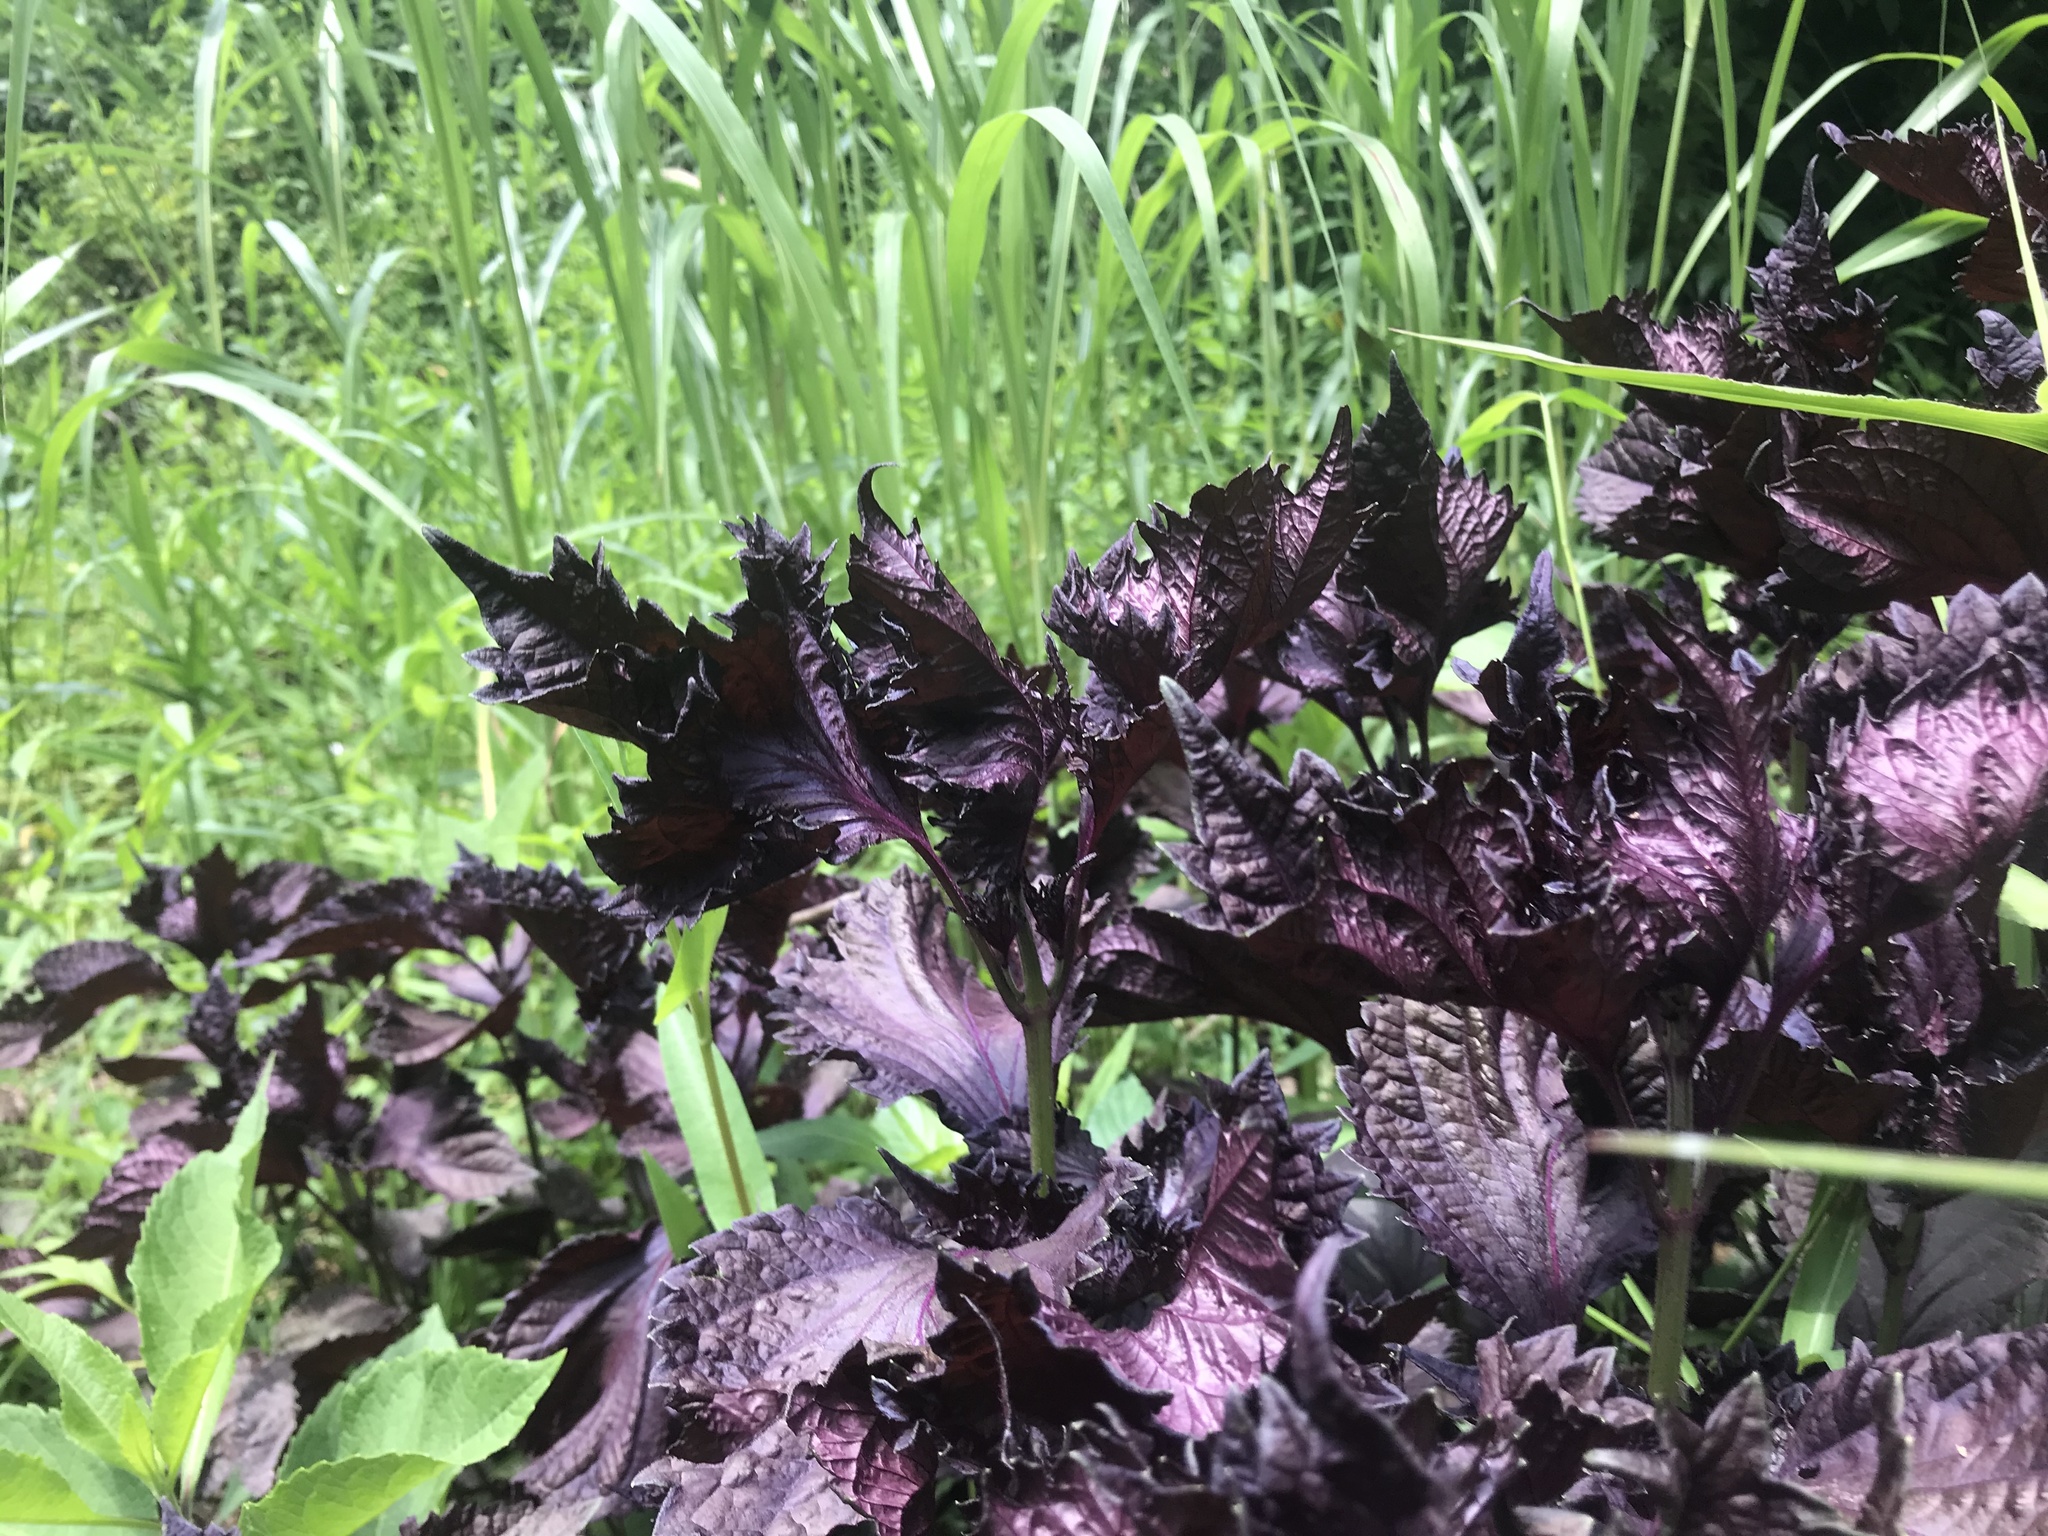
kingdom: Plantae
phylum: Tracheophyta
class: Magnoliopsida
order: Lamiales
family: Lamiaceae
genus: Perilla
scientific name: Perilla frutescens
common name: Perilla
